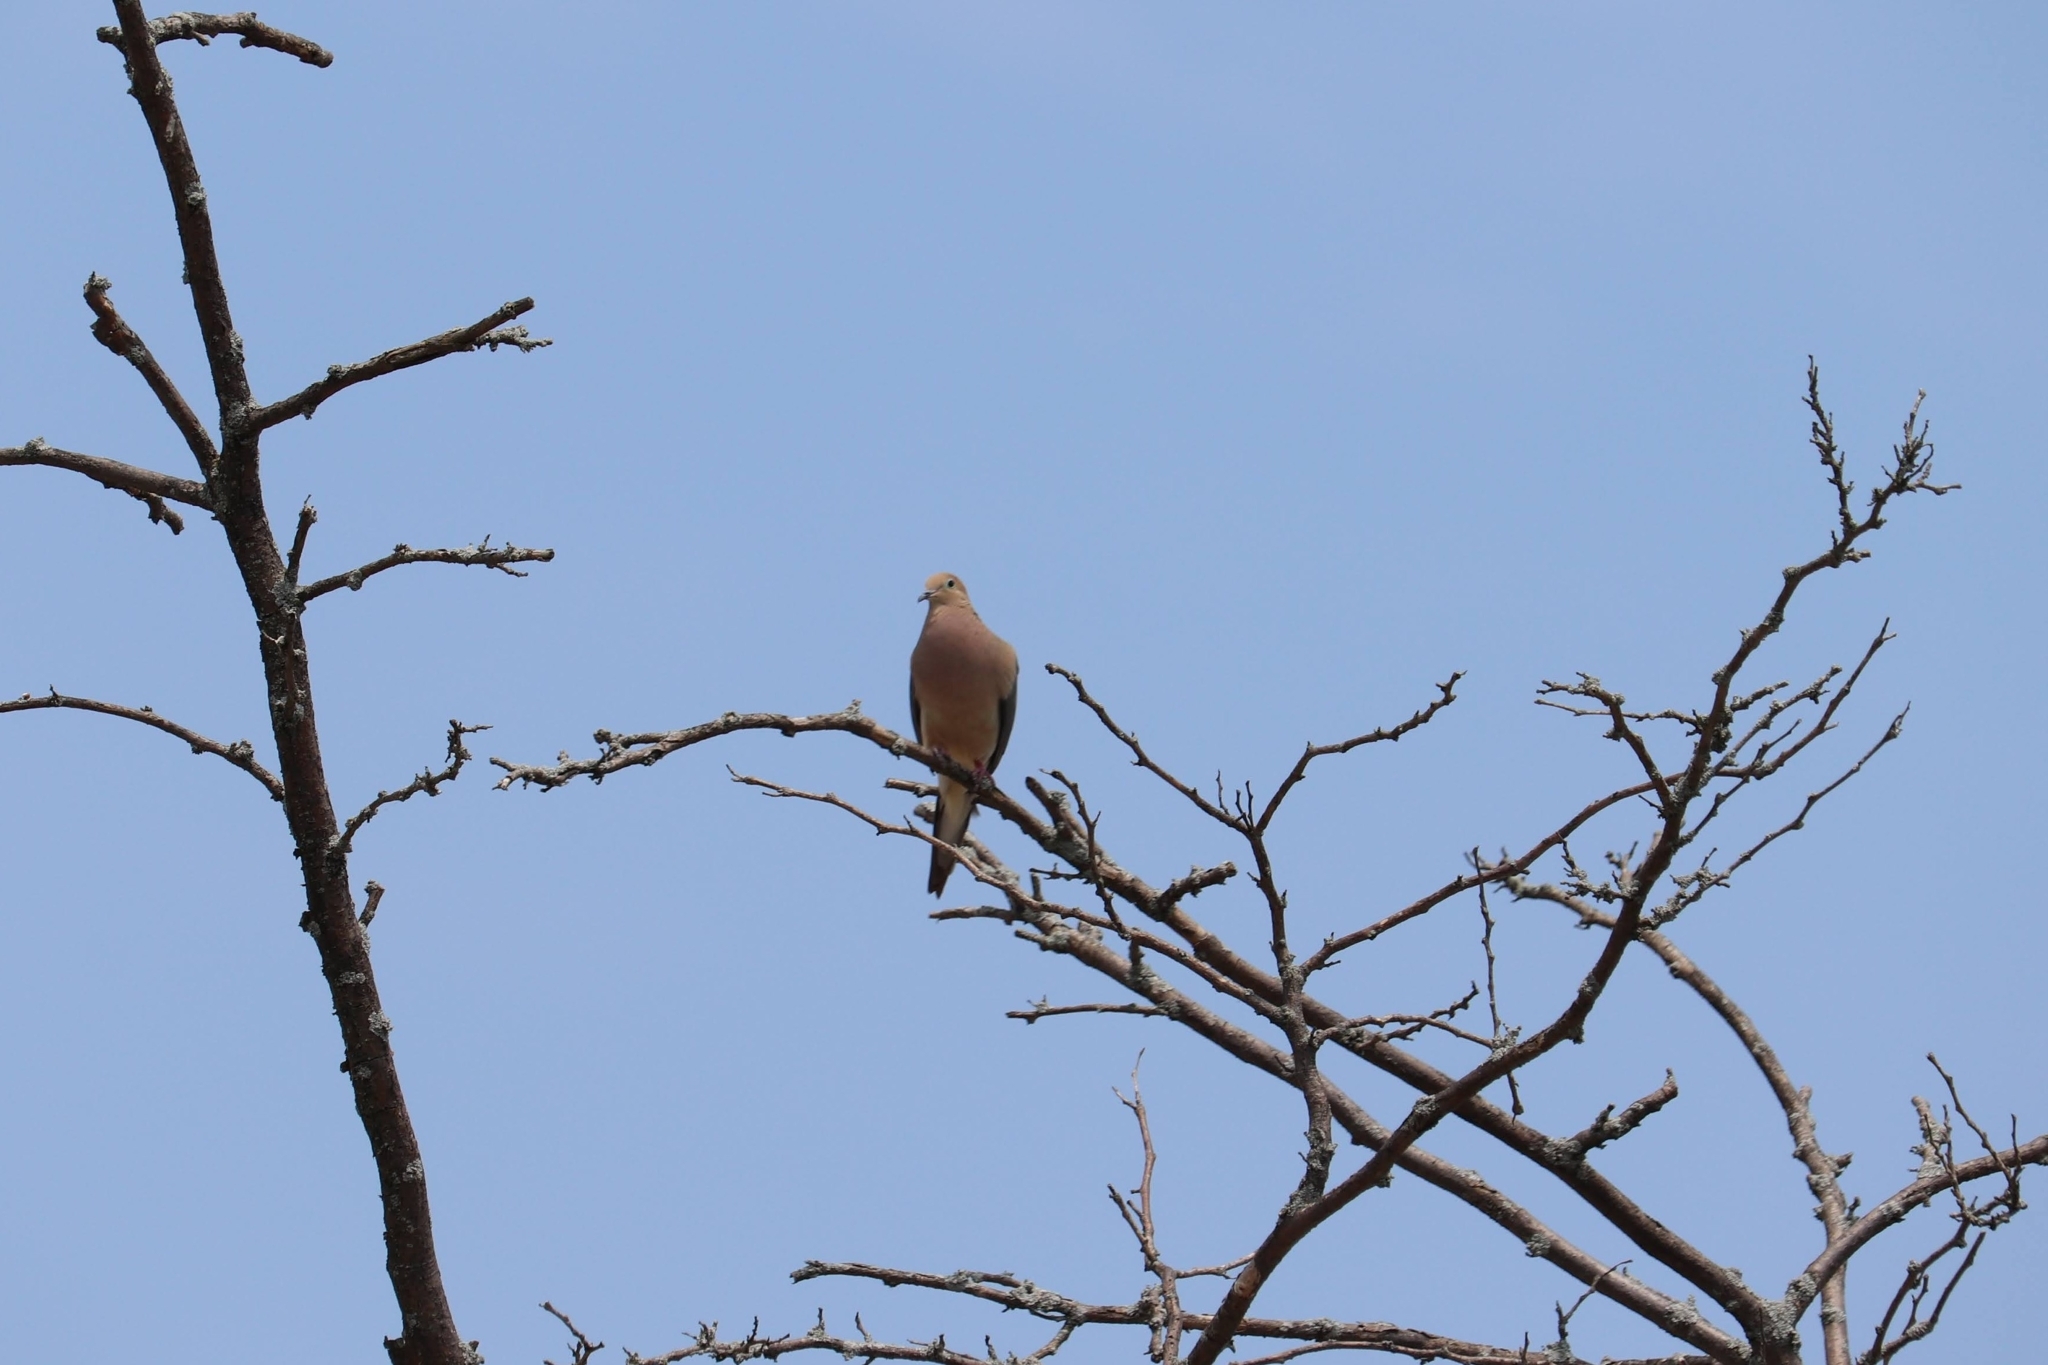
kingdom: Animalia
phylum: Chordata
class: Aves
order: Columbiformes
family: Columbidae
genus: Zenaida
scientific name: Zenaida macroura
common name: Mourning dove
